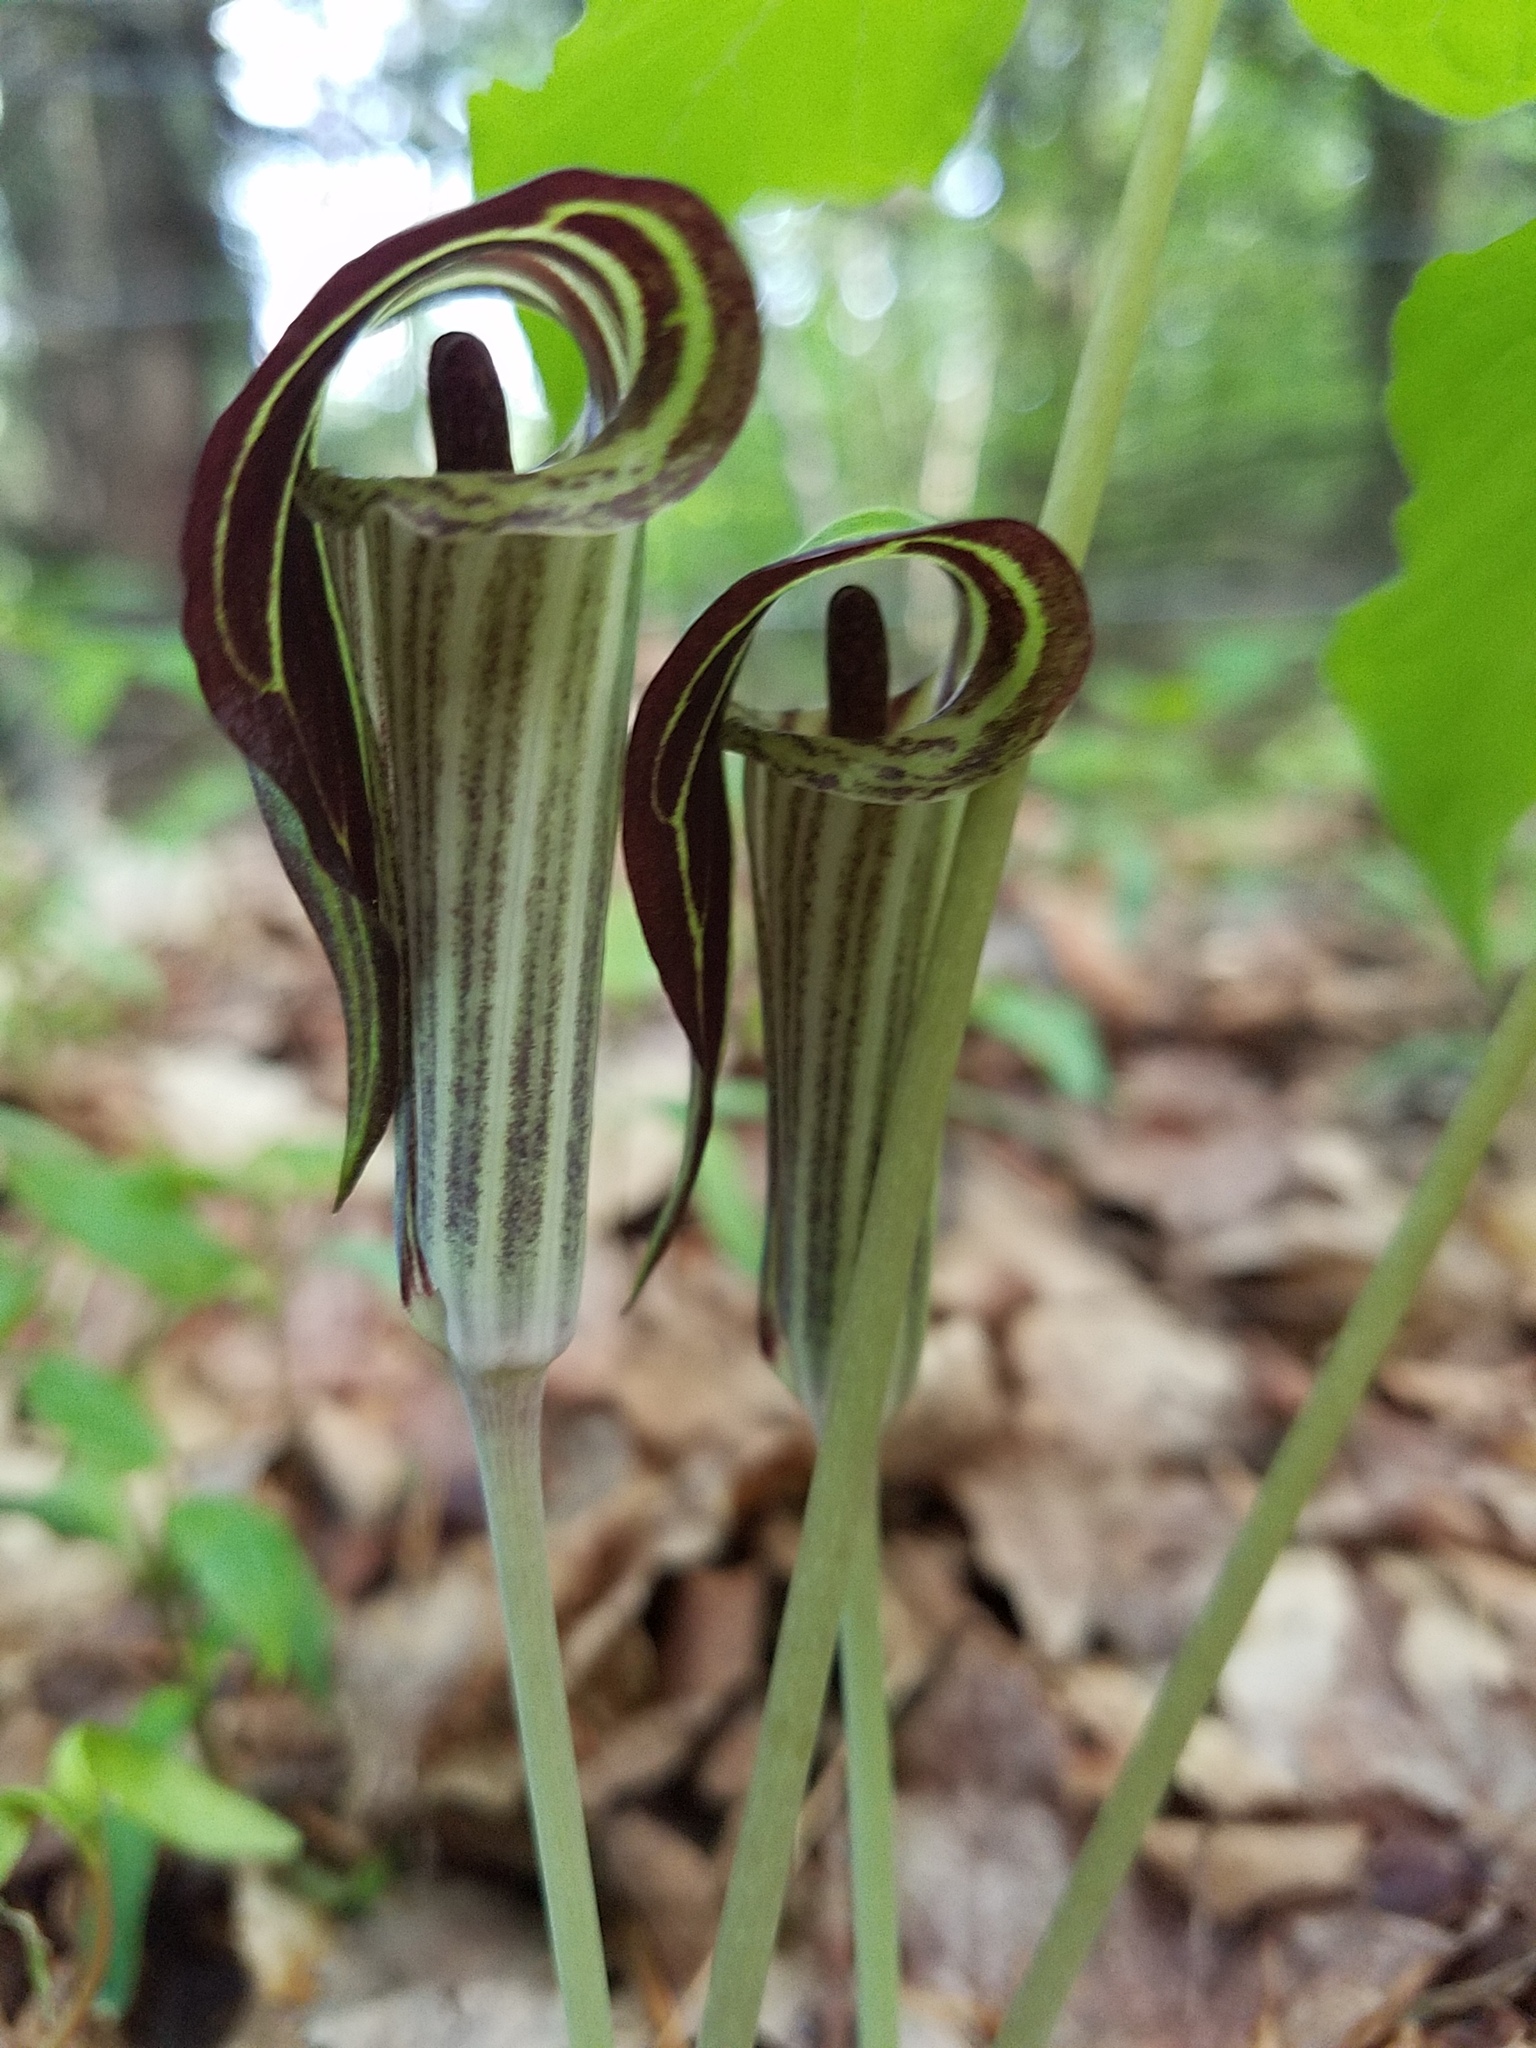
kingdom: Plantae
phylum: Tracheophyta
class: Liliopsida
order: Alismatales
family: Araceae
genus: Arisaema
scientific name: Arisaema triphyllum
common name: Jack-in-the-pulpit
